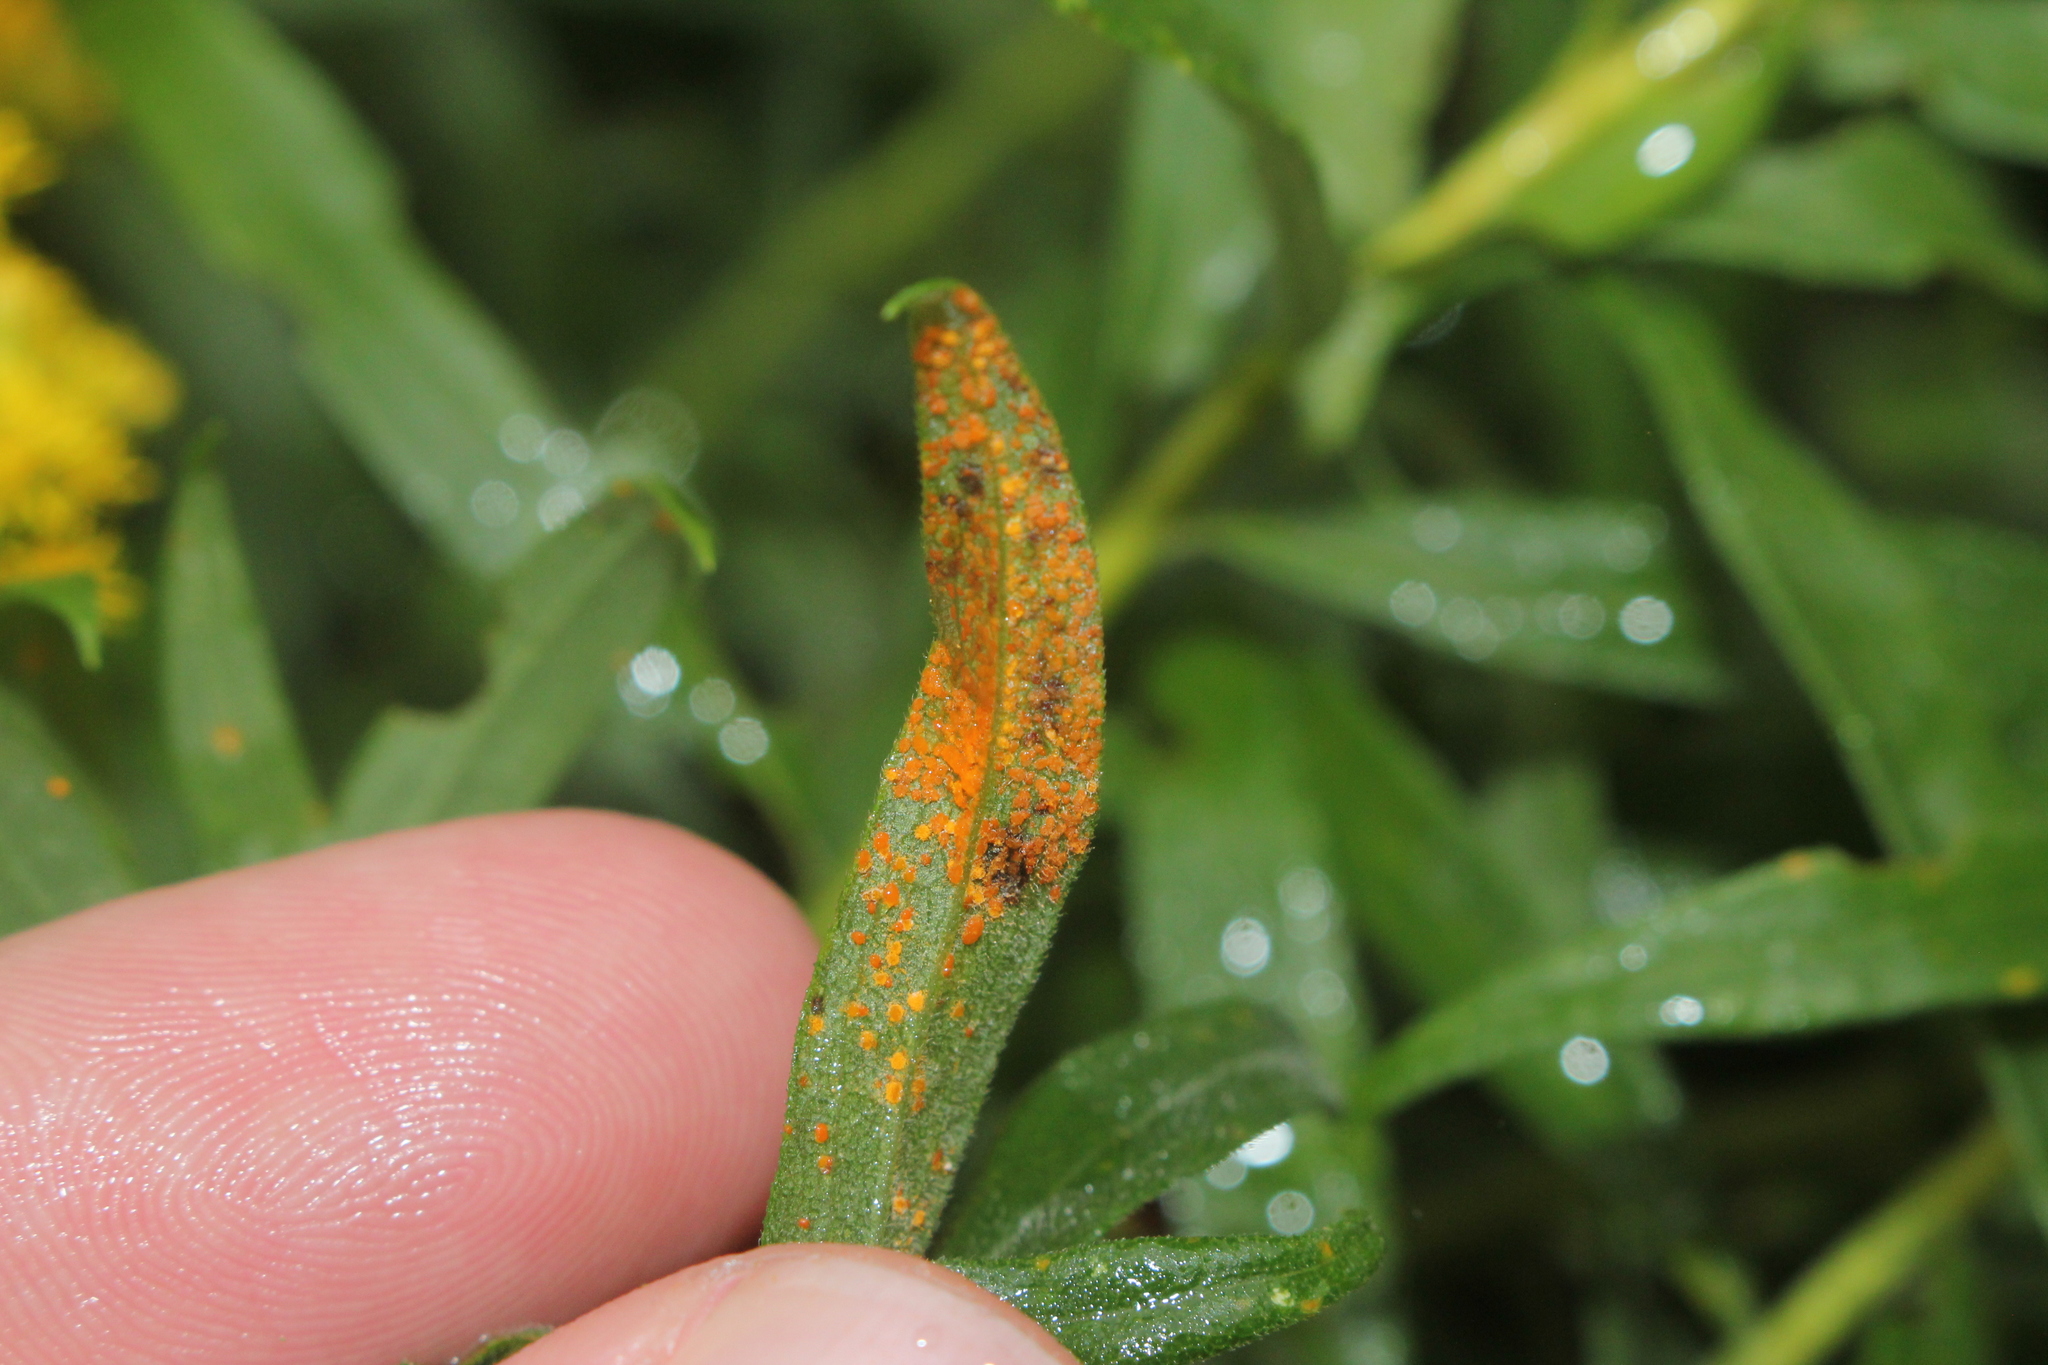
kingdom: Fungi
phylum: Basidiomycota
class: Pucciniomycetes
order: Pucciniales
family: Coleosporiaceae
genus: Coleosporium
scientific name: Coleosporium asterum
